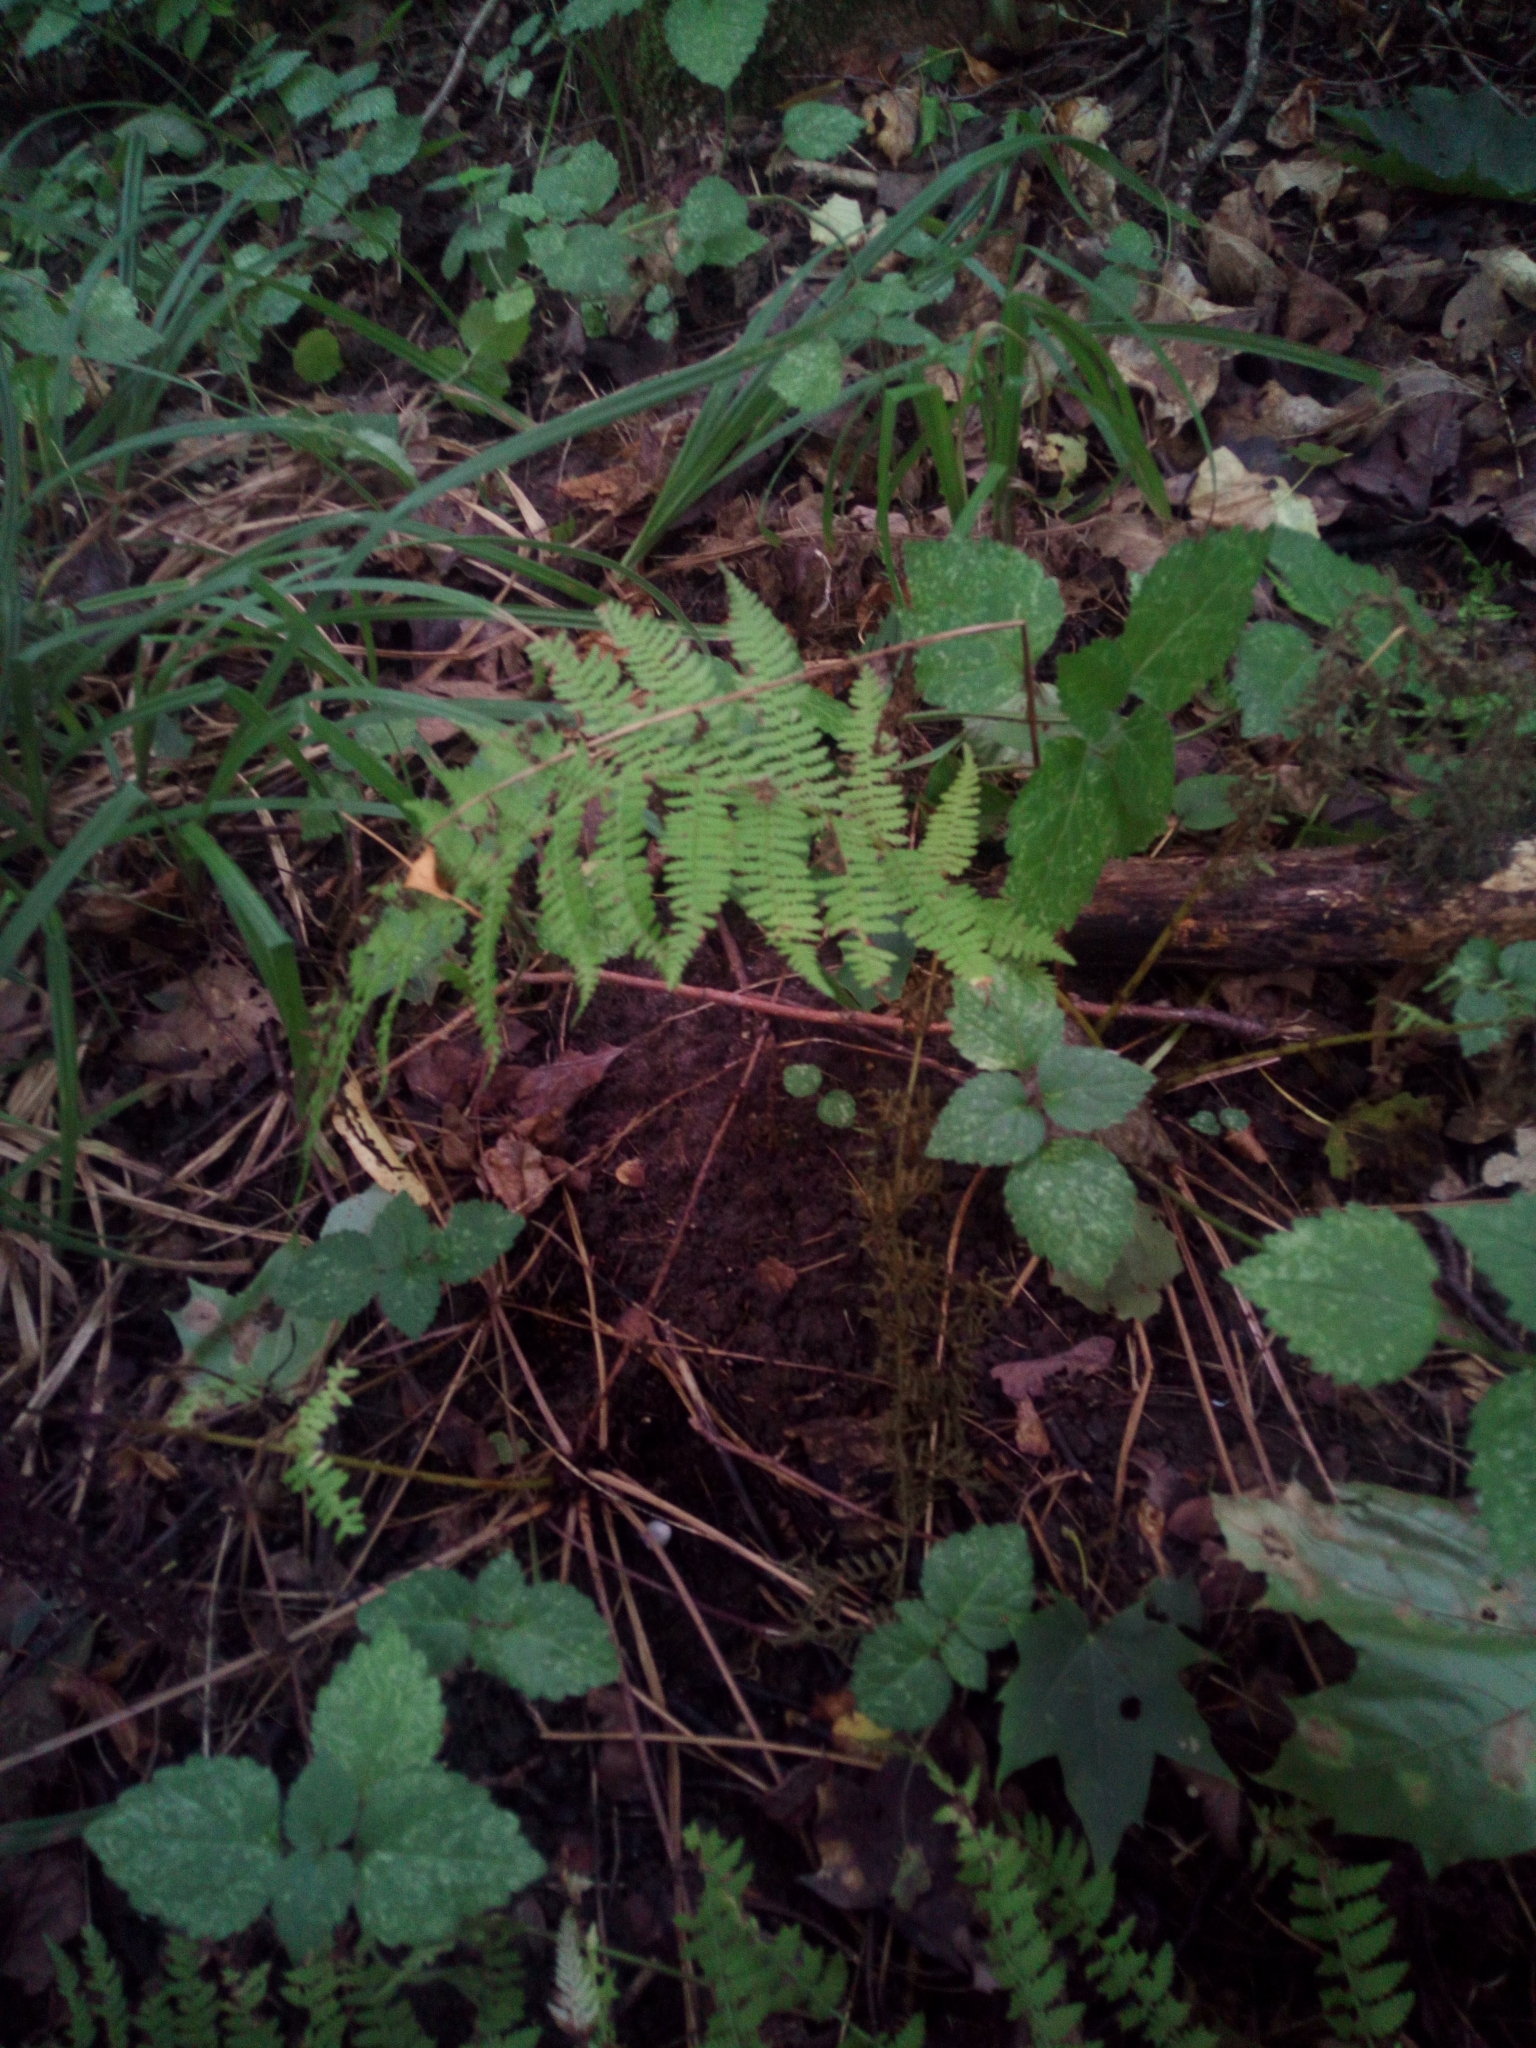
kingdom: Plantae
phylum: Tracheophyta
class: Polypodiopsida
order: Polypodiales
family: Athyriaceae
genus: Athyrium
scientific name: Athyrium filix-femina
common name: Lady fern
